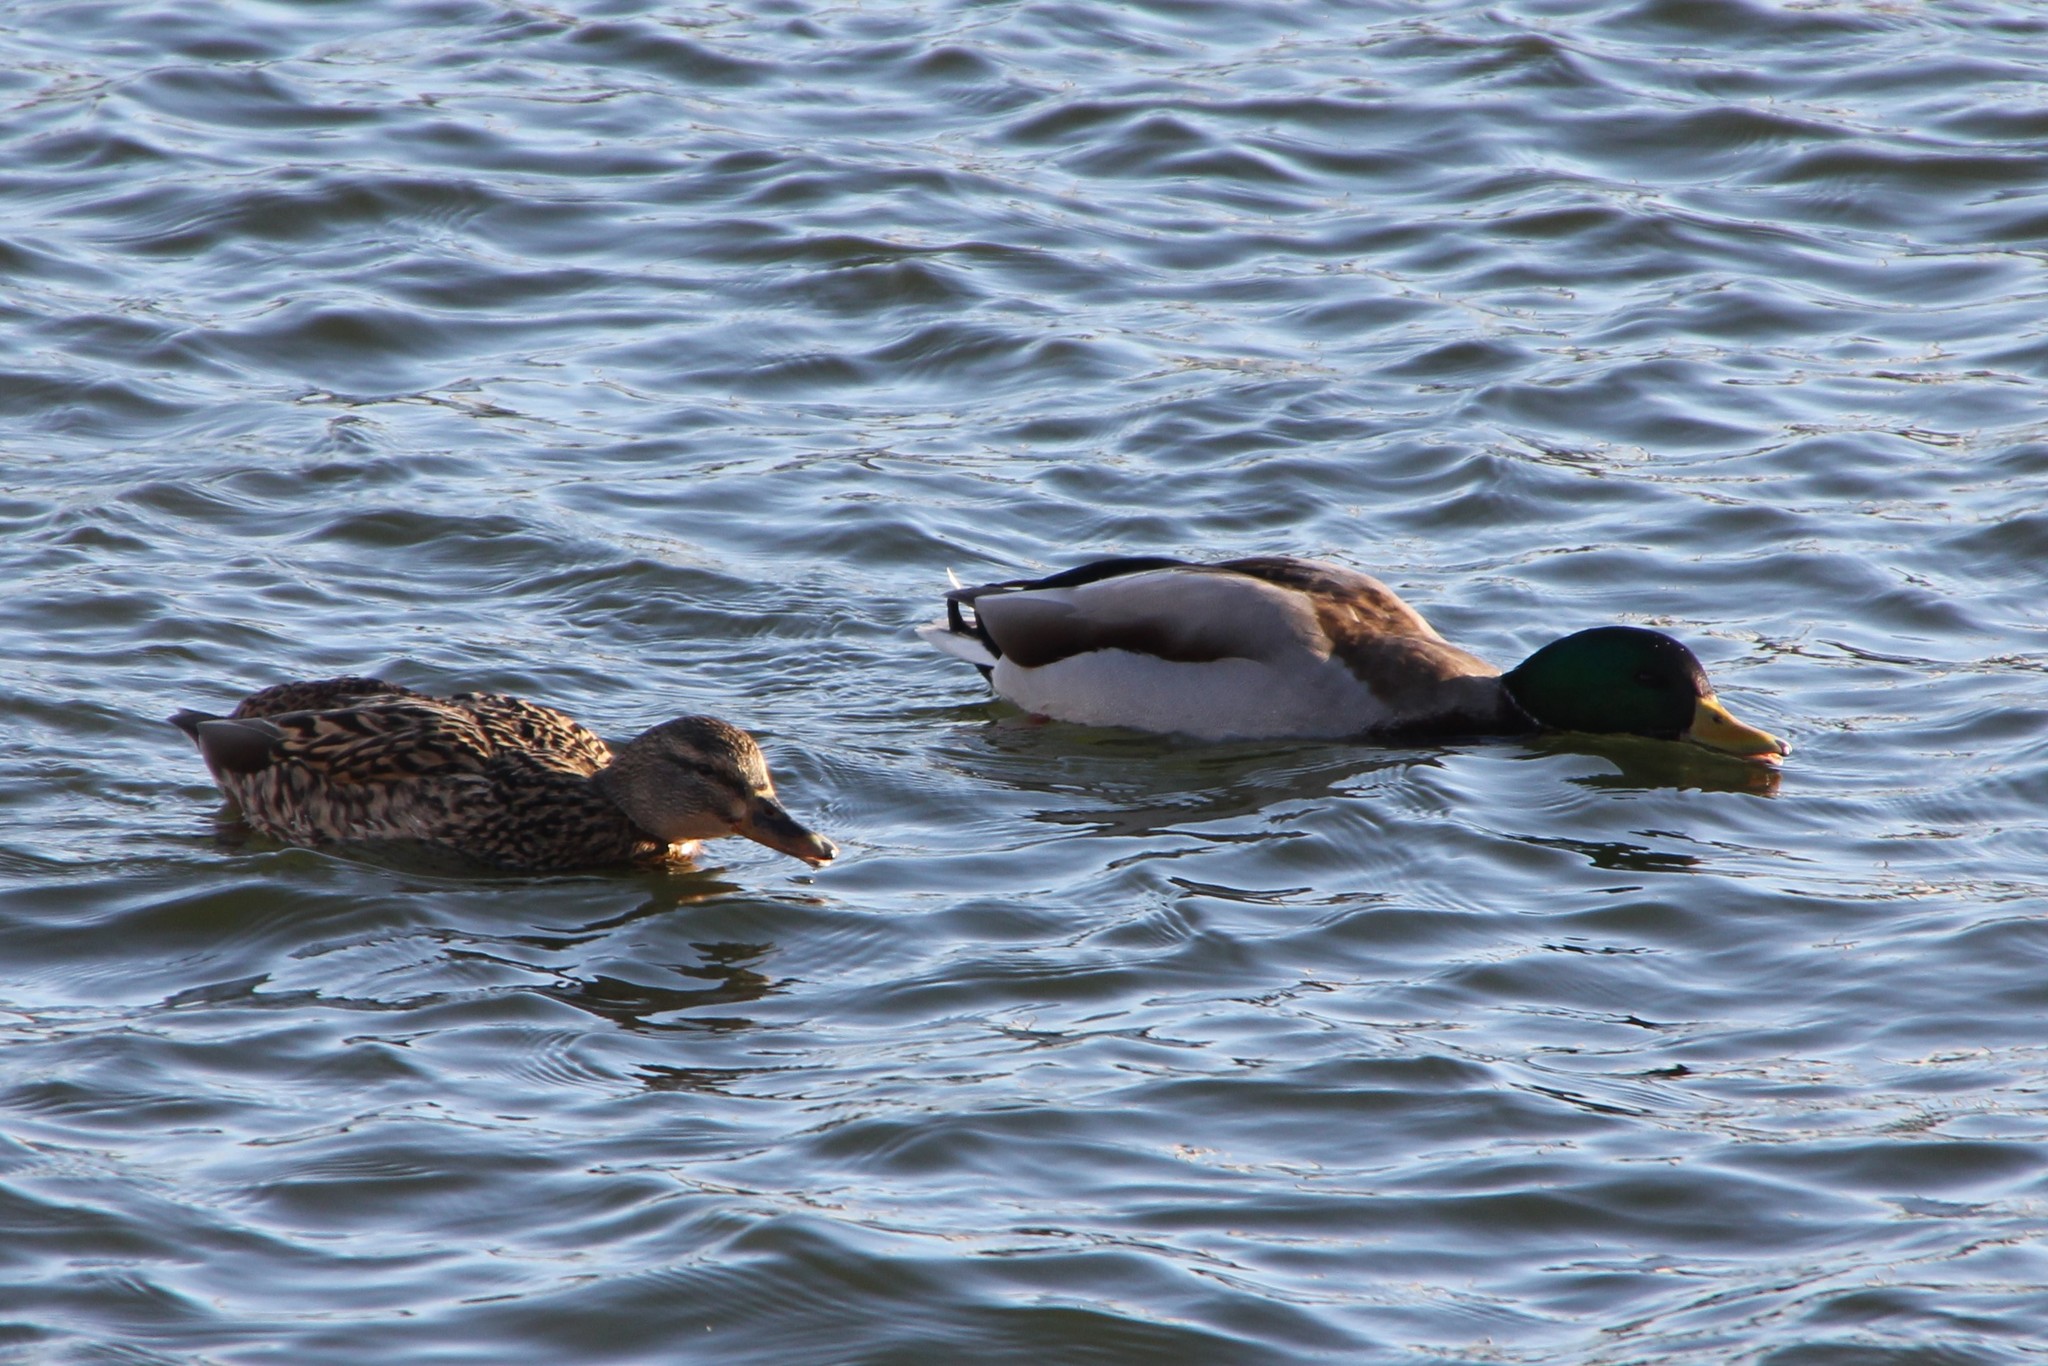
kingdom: Animalia
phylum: Chordata
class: Aves
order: Anseriformes
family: Anatidae
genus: Anas
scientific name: Anas platyrhynchos
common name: Mallard
